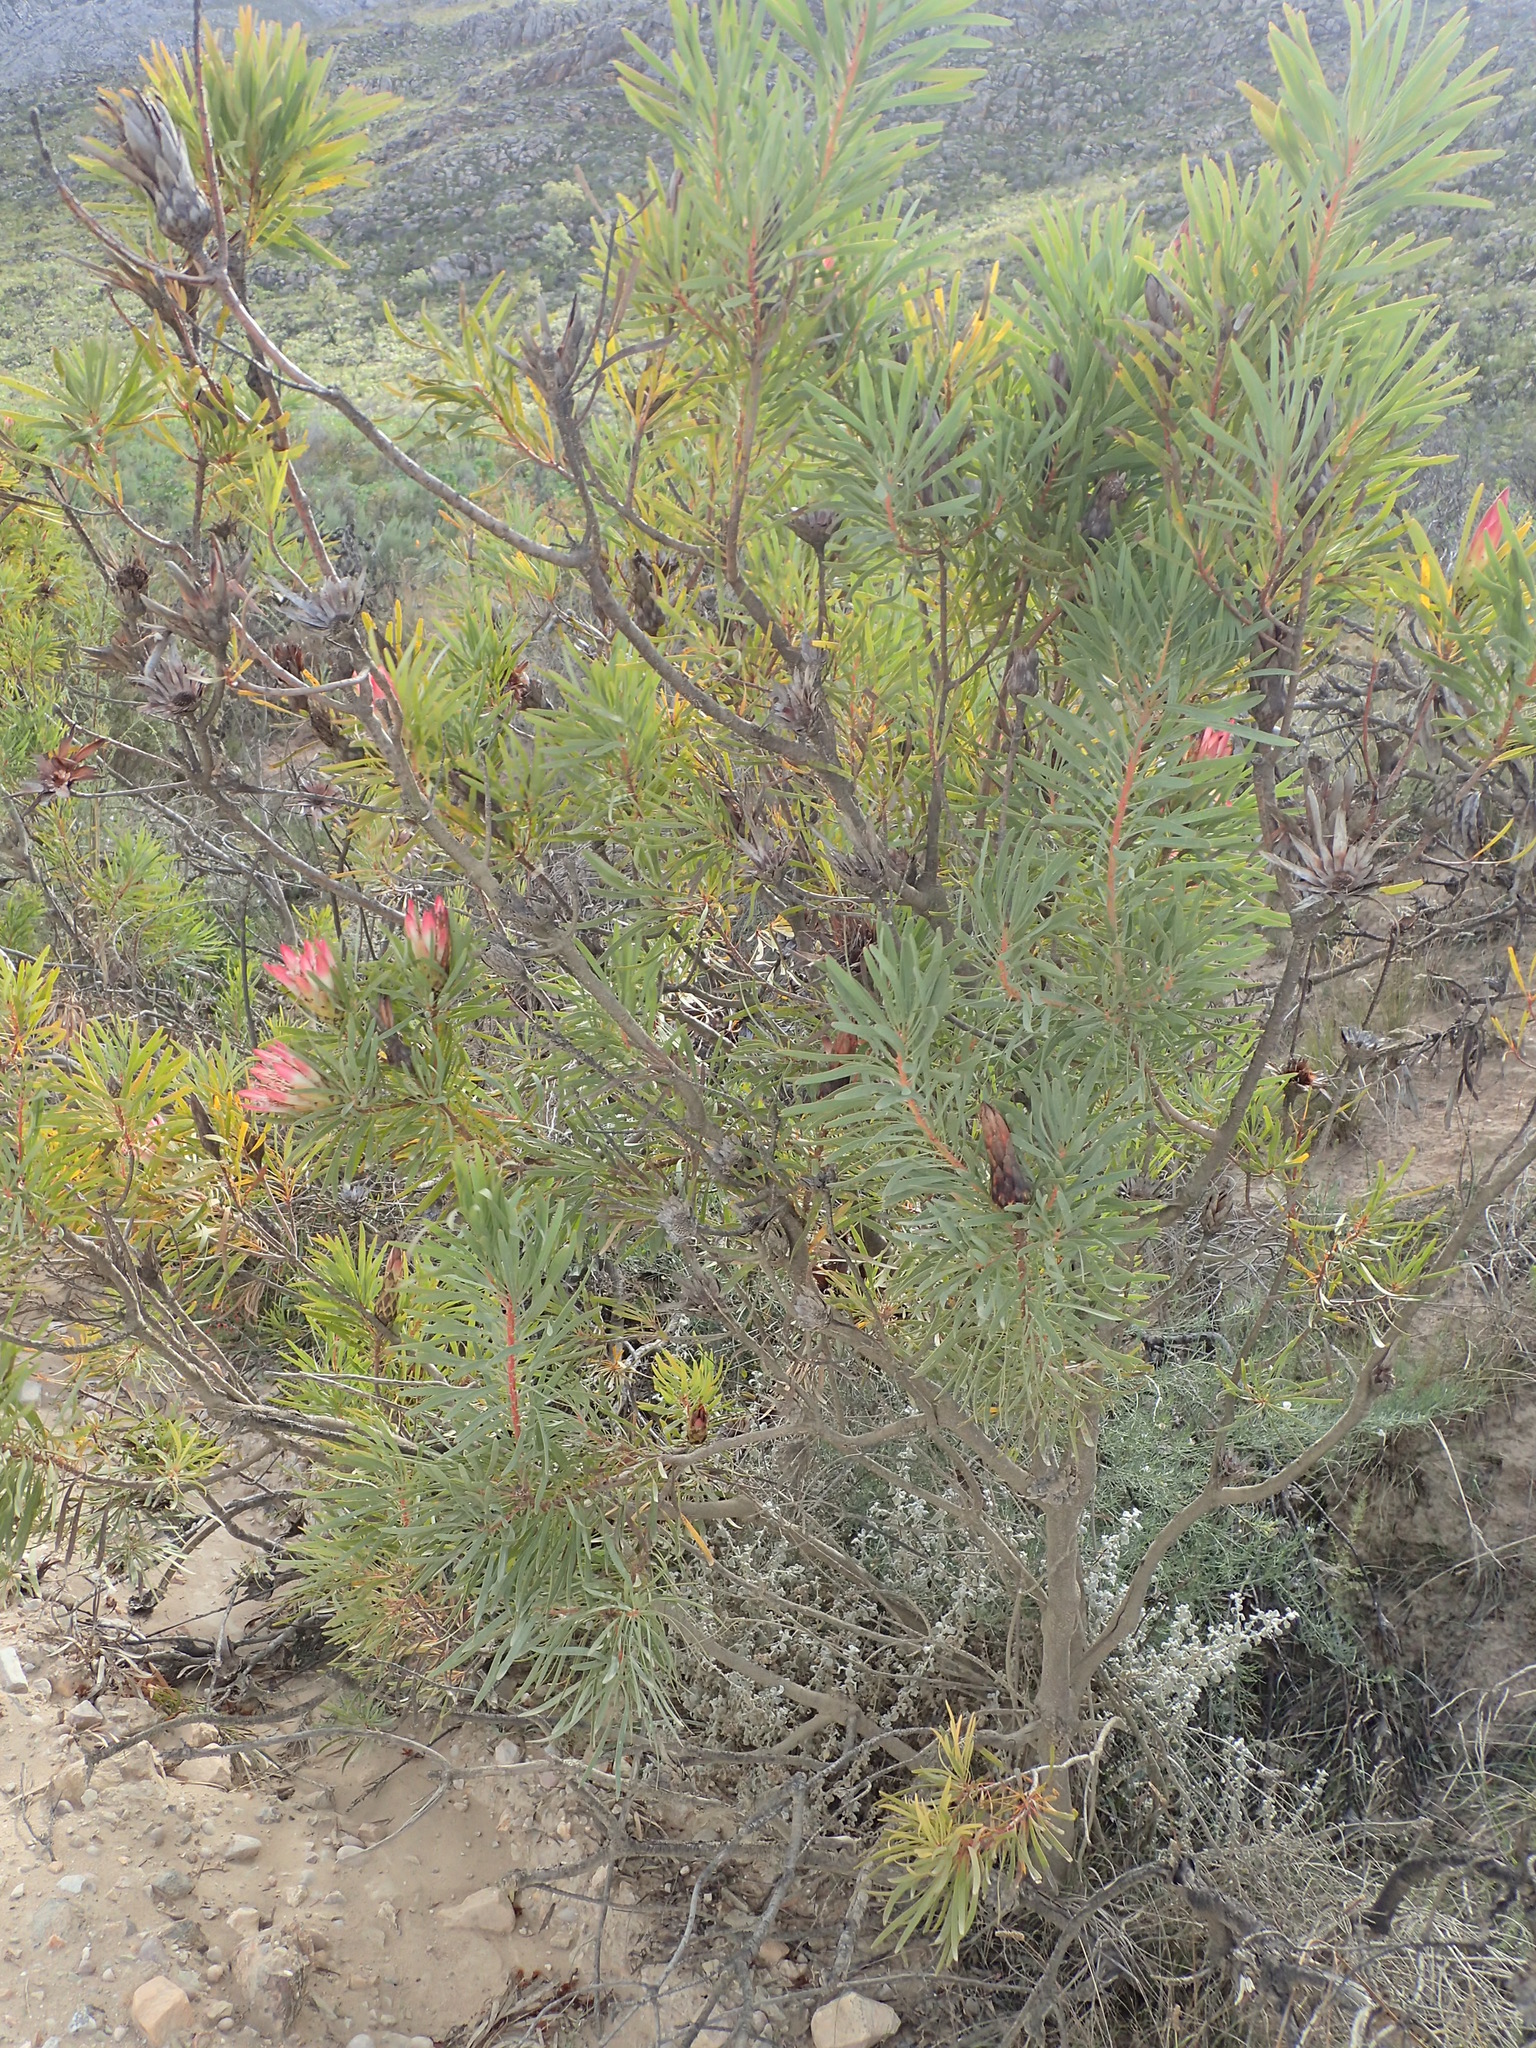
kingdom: Plantae
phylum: Tracheophyta
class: Magnoliopsida
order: Proteales
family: Proteaceae
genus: Protea
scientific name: Protea repens
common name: Sugarbush
